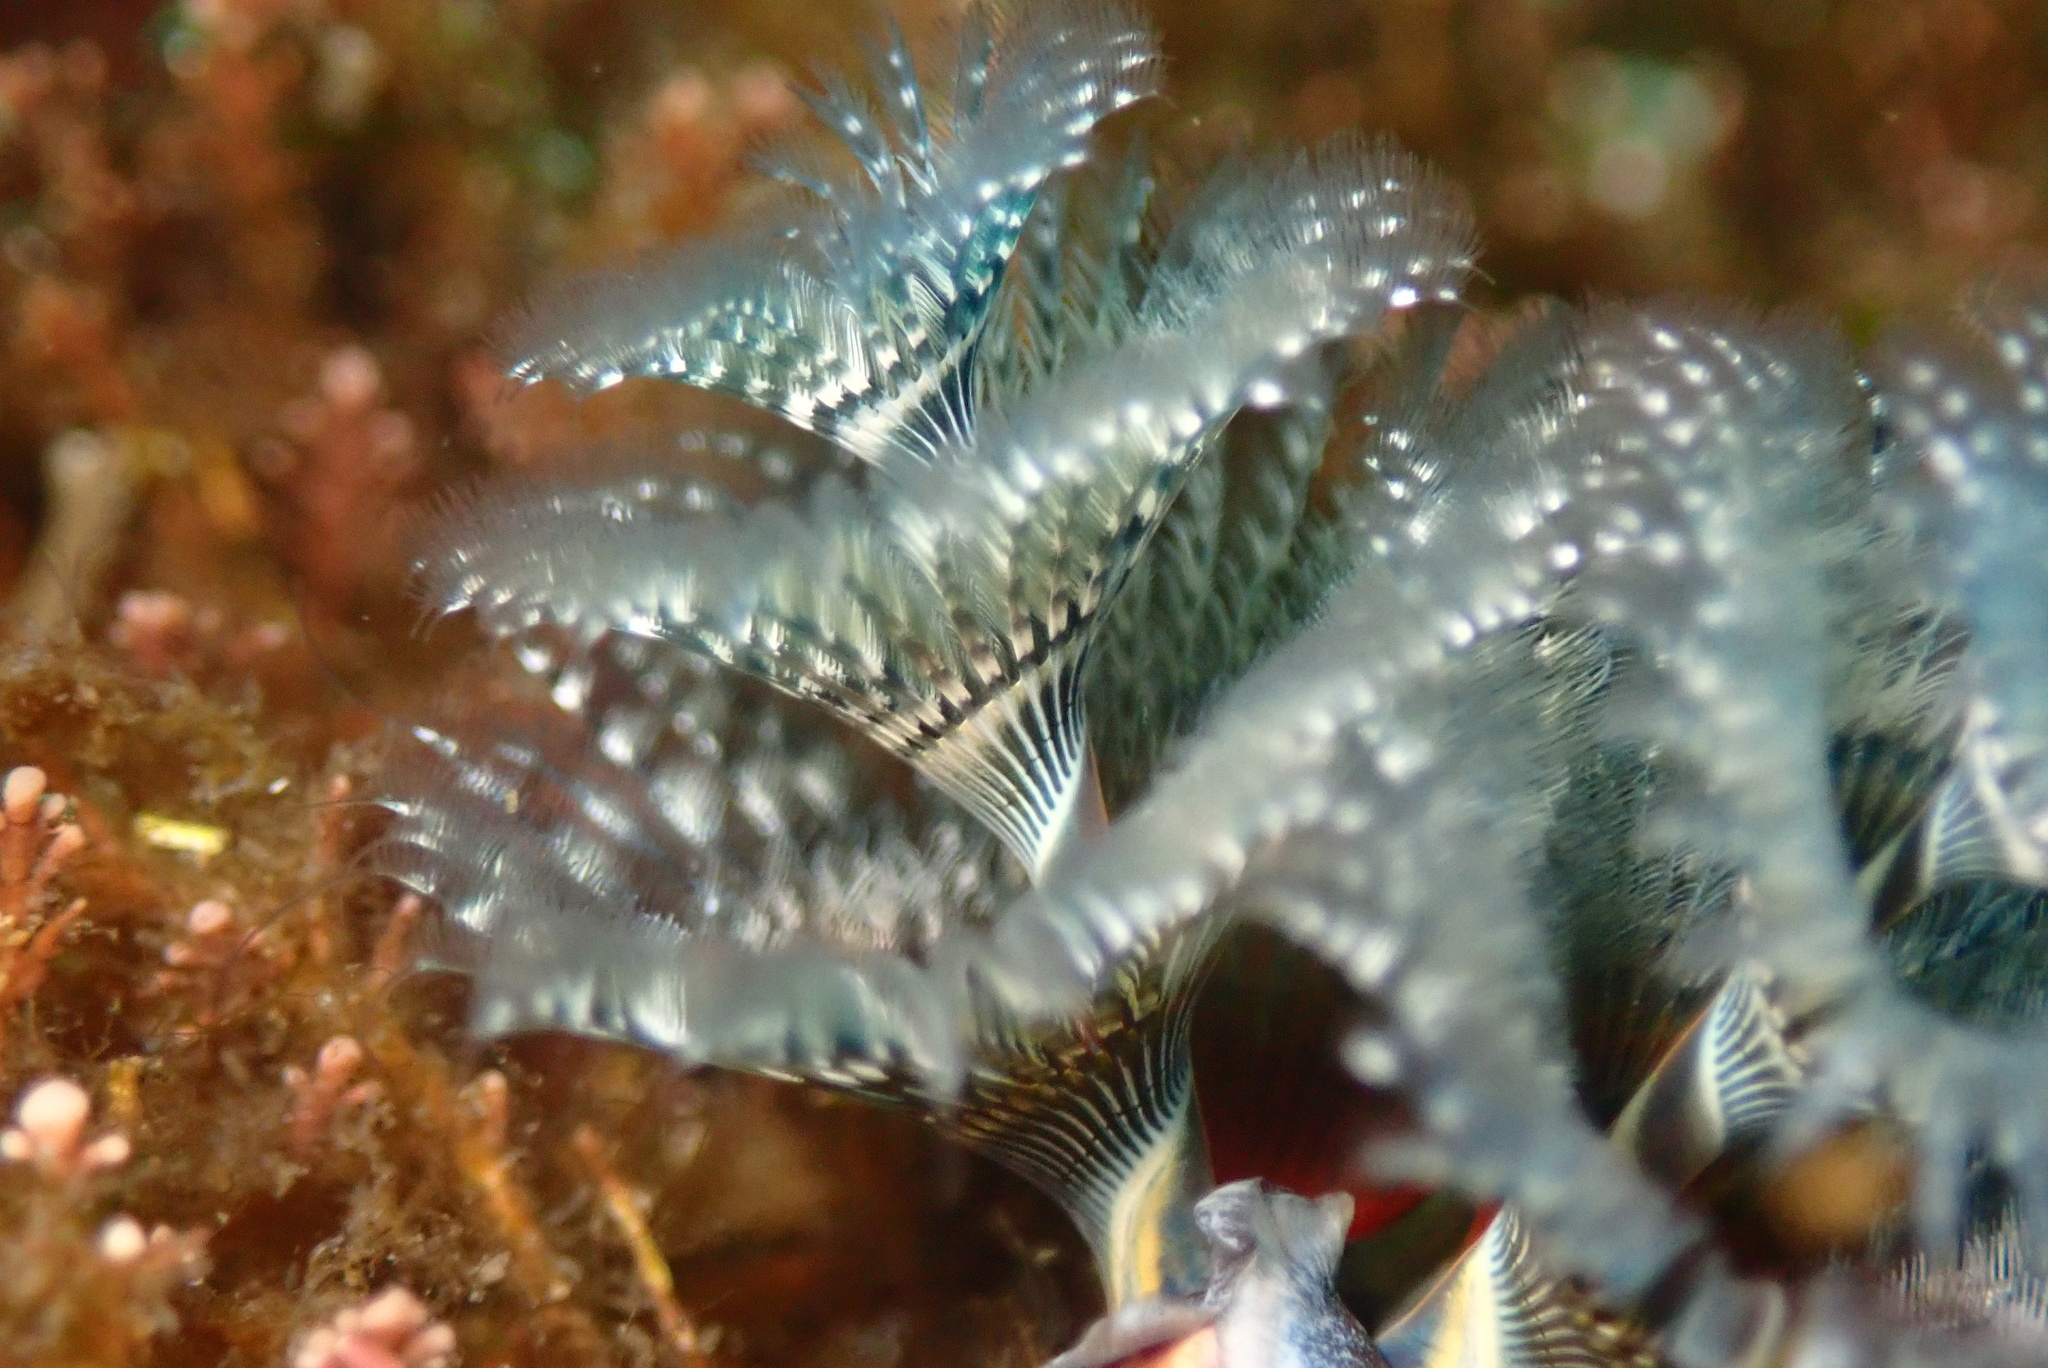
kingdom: Animalia
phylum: Annelida
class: Polychaeta
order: Sabellida
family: Serpulidae
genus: Spirobranchus
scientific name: Spirobranchus spinosus
